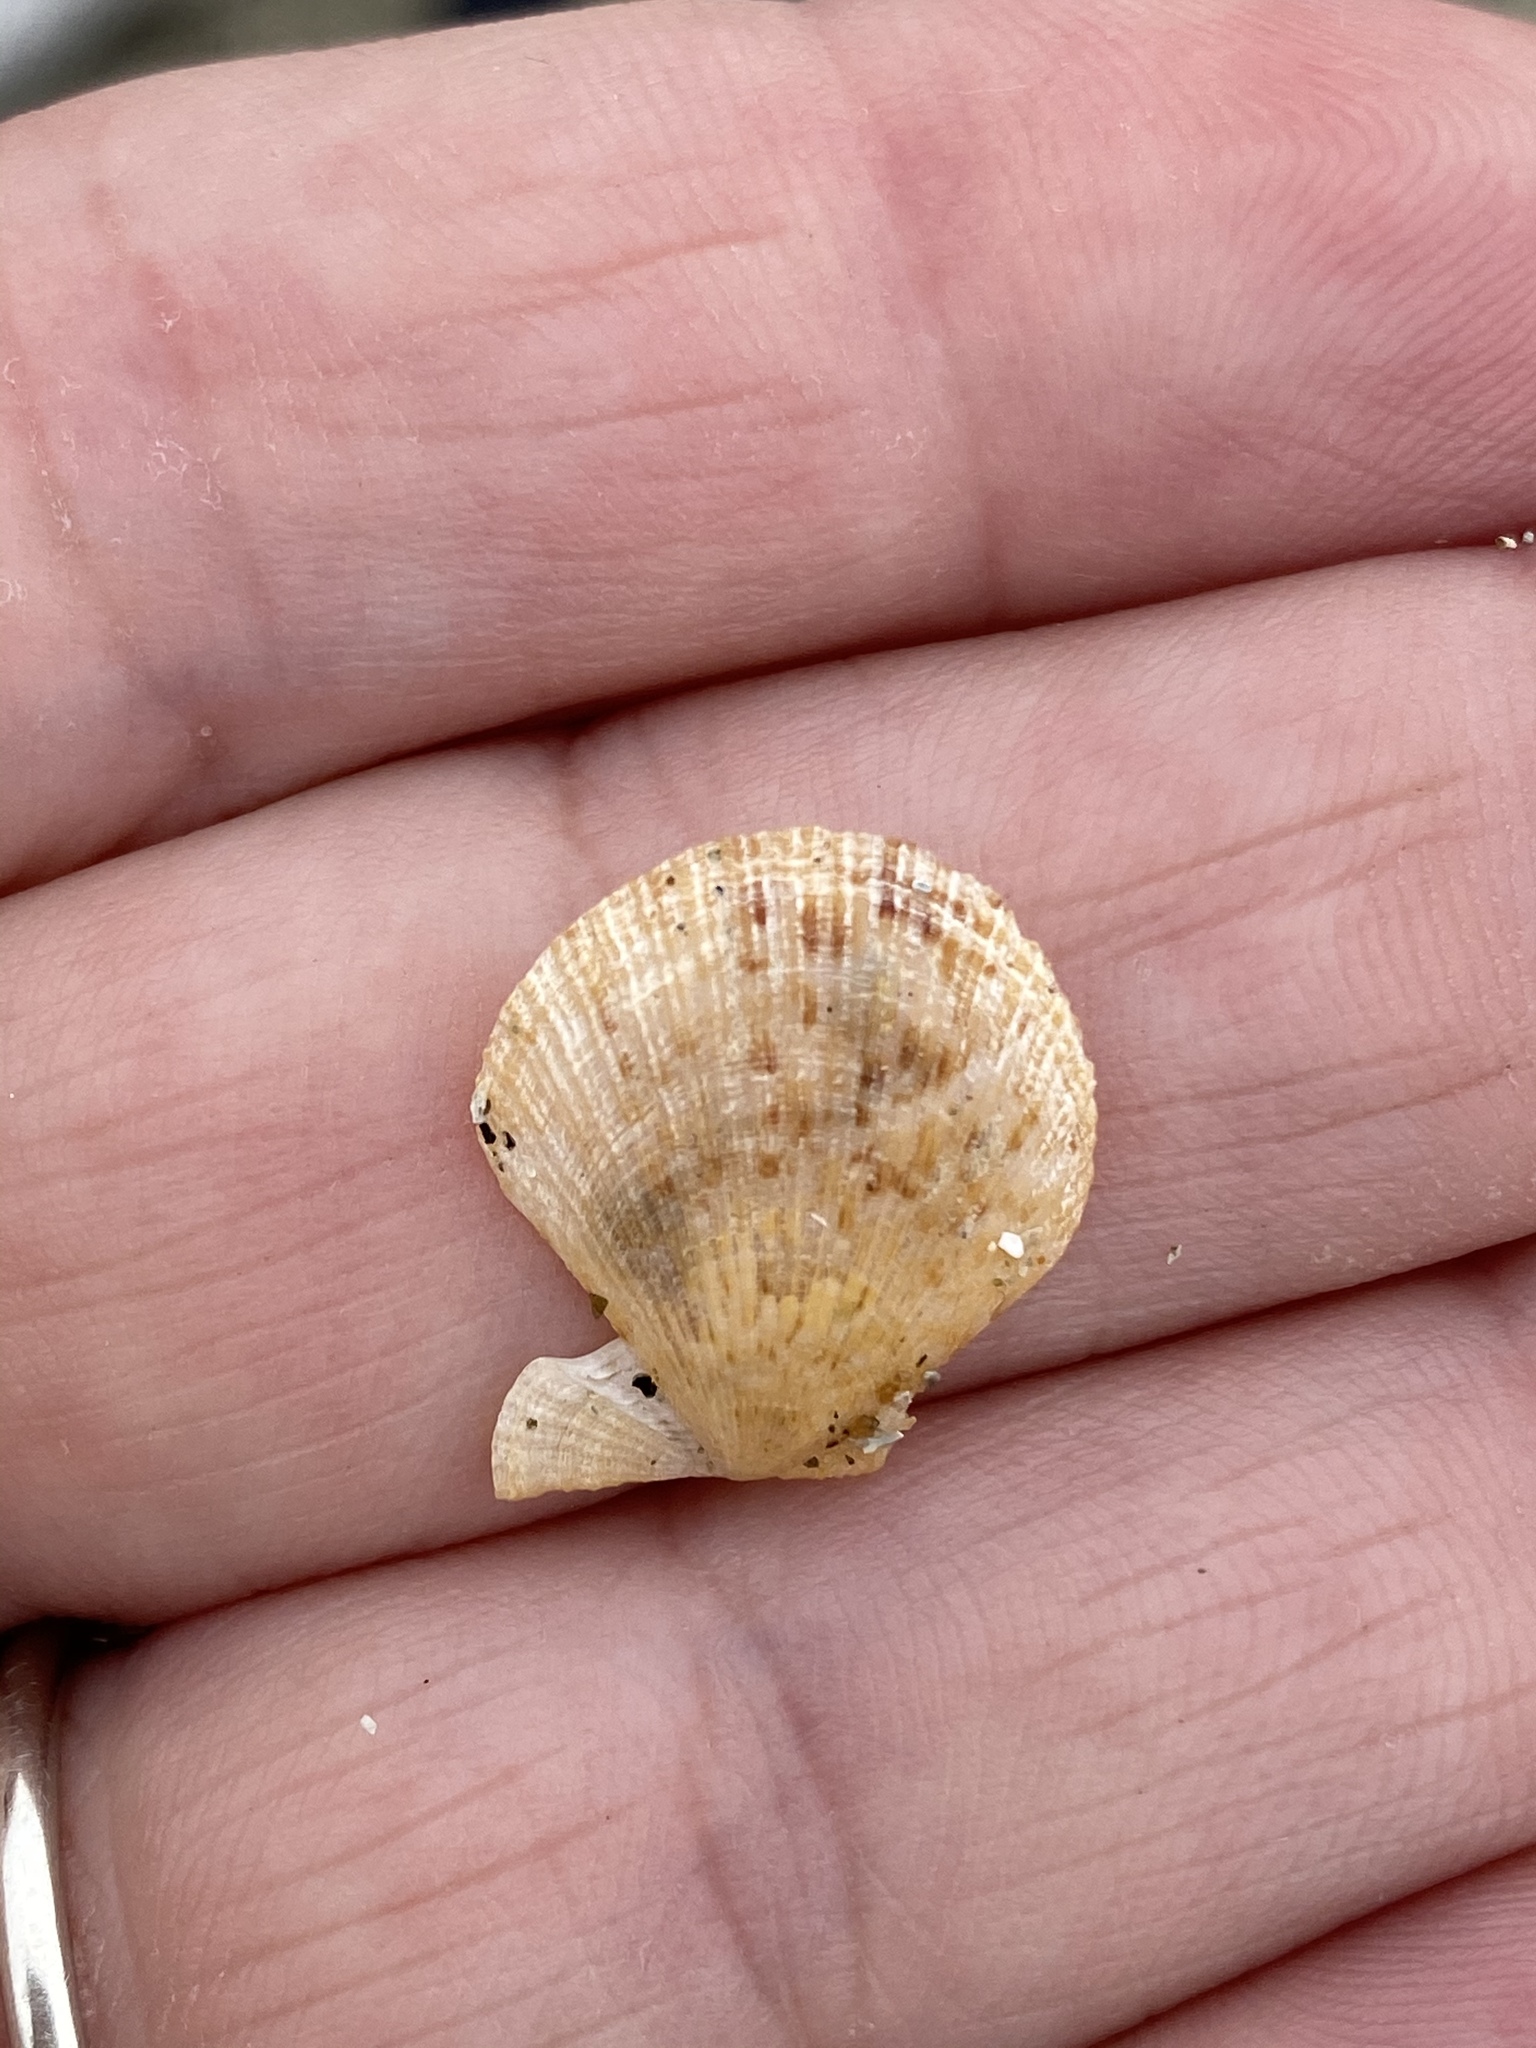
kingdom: Animalia
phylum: Mollusca
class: Bivalvia
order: Pectinida
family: Pectinidae
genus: Crassadoma
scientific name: Crassadoma gigantea
